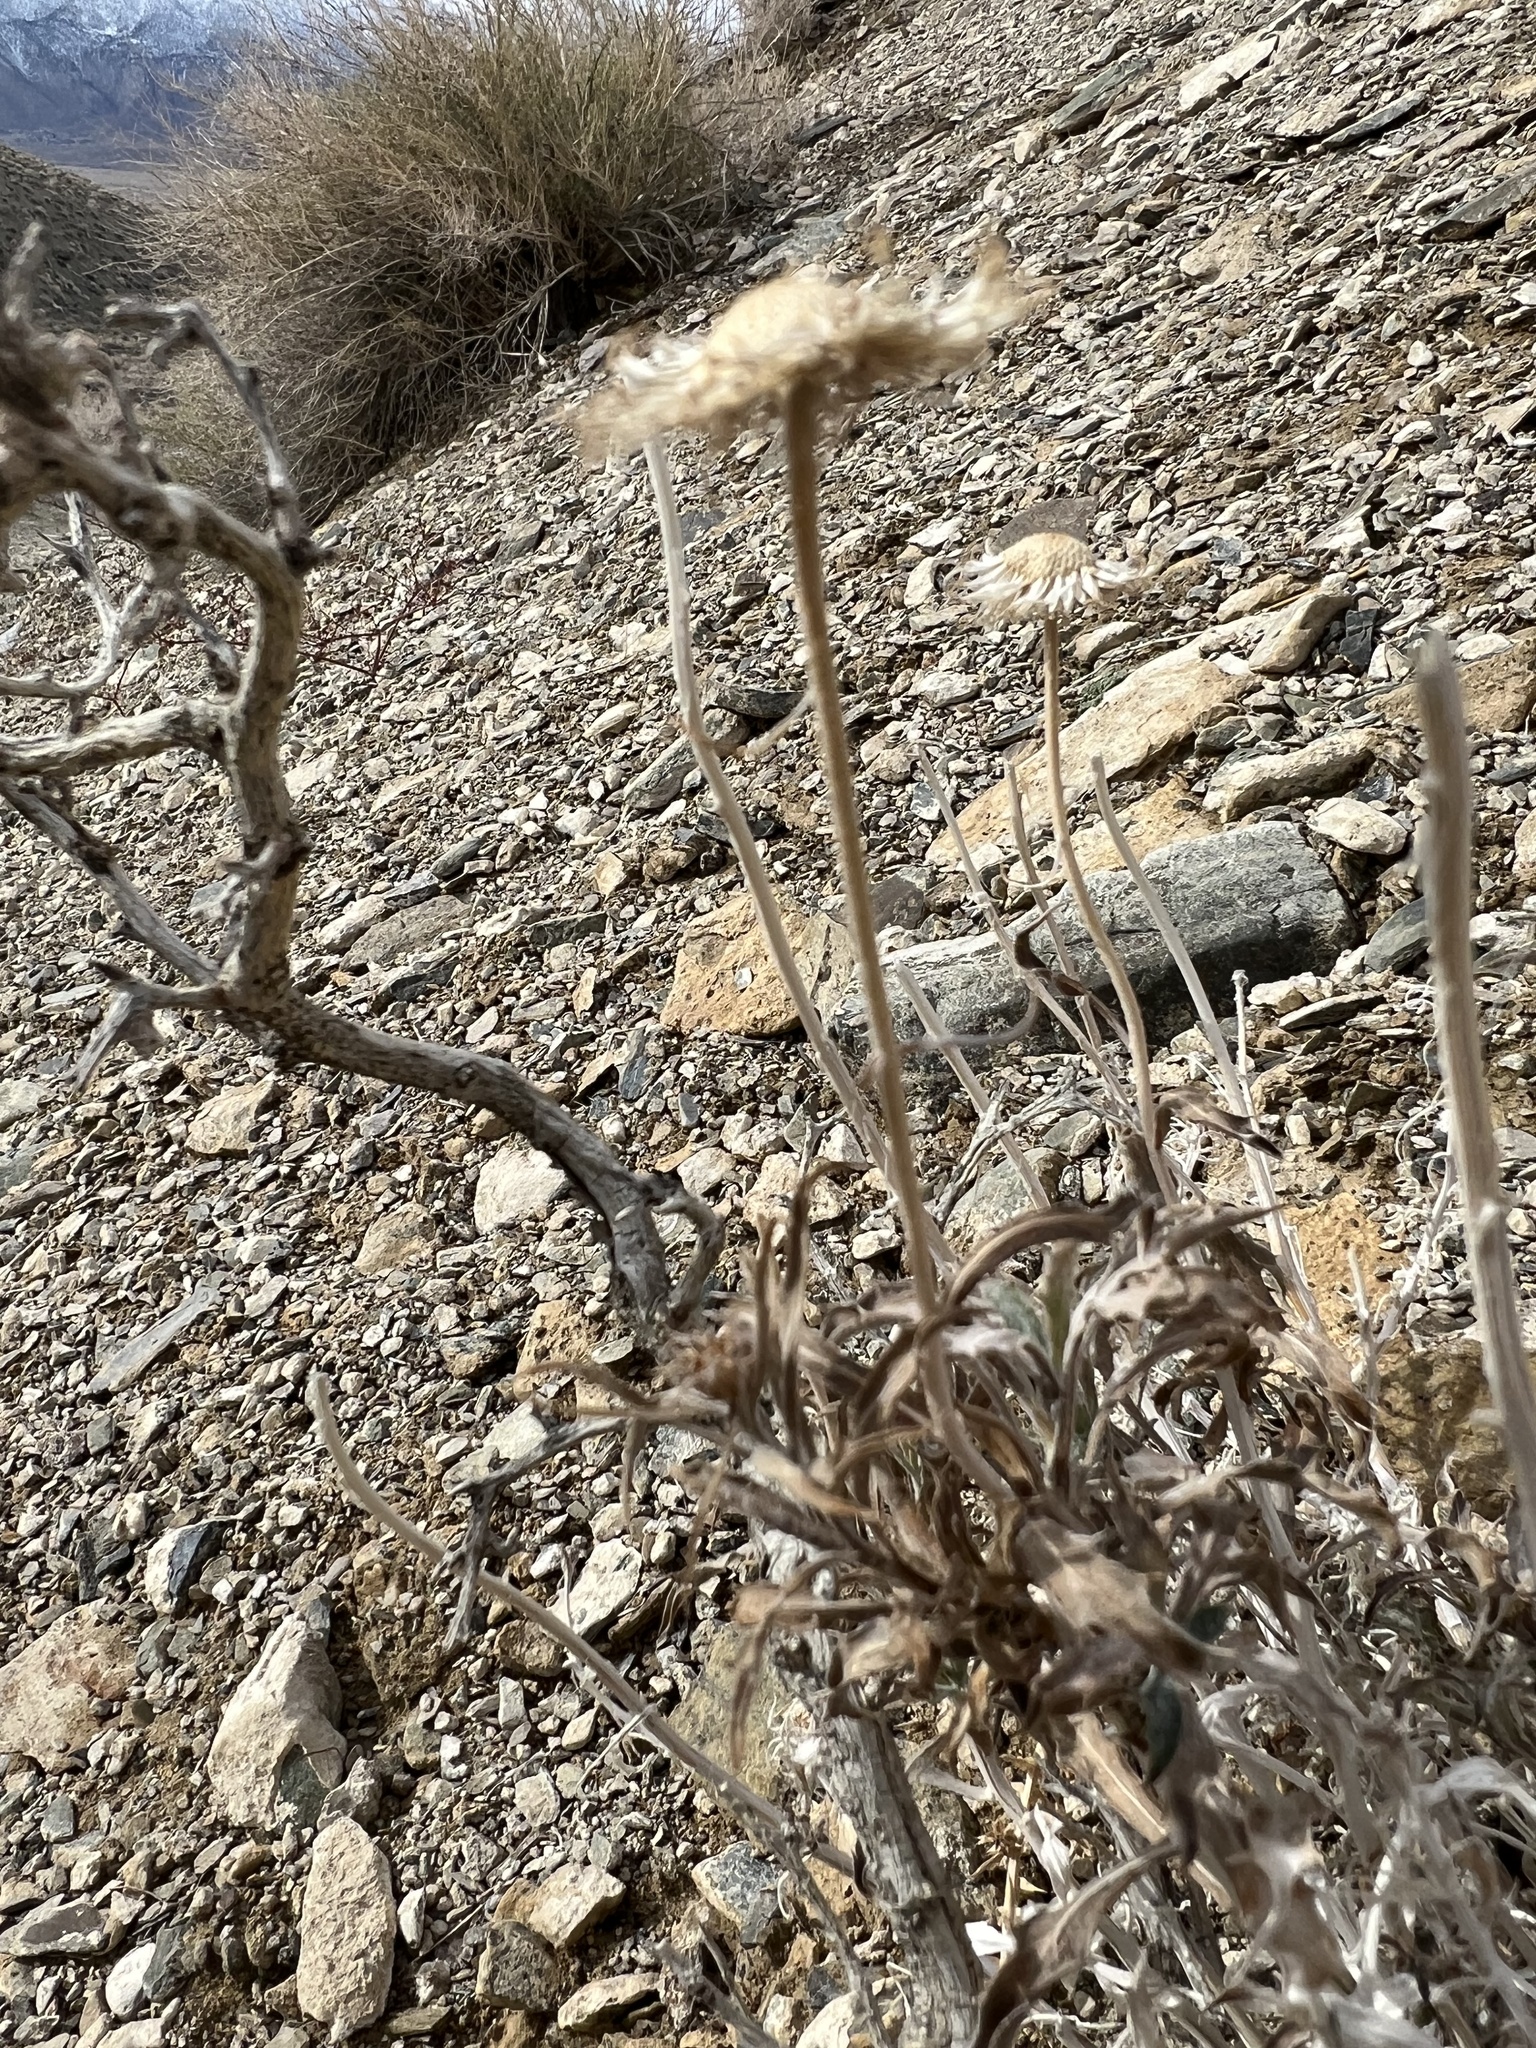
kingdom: Plantae
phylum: Tracheophyta
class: Magnoliopsida
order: Asterales
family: Asteraceae
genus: Xylorhiza
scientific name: Xylorhiza tortifolia
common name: Hurt-leaf woody-aster
